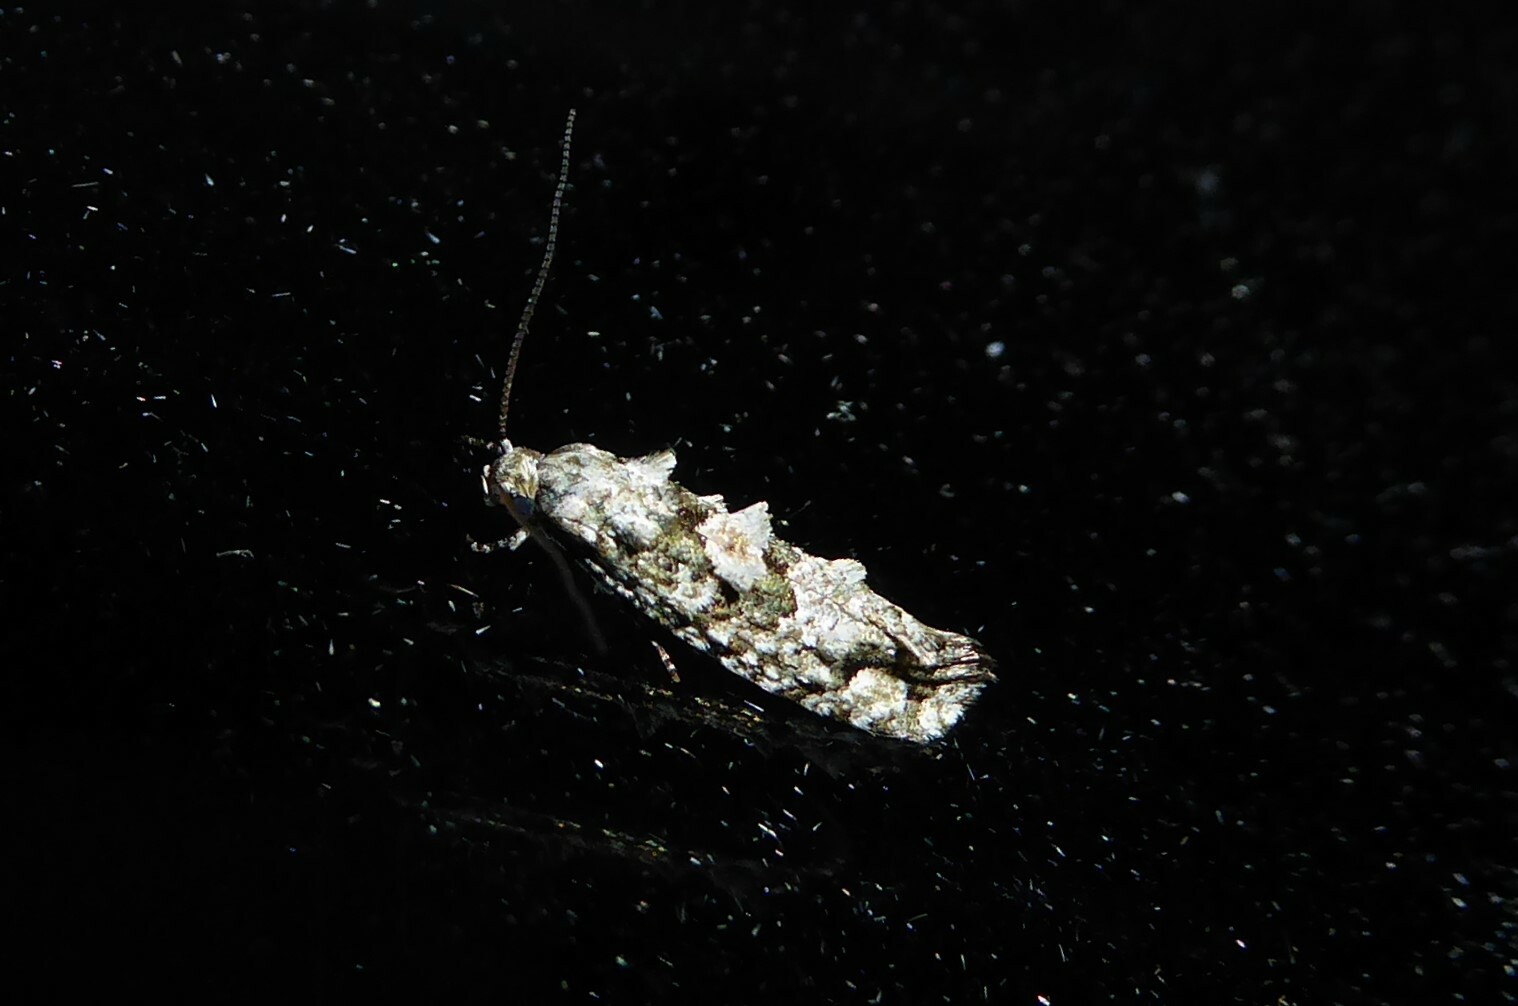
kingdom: Animalia
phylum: Arthropoda
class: Insecta
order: Lepidoptera
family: Tineidae
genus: Lysiphragma
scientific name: Lysiphragma howesii
